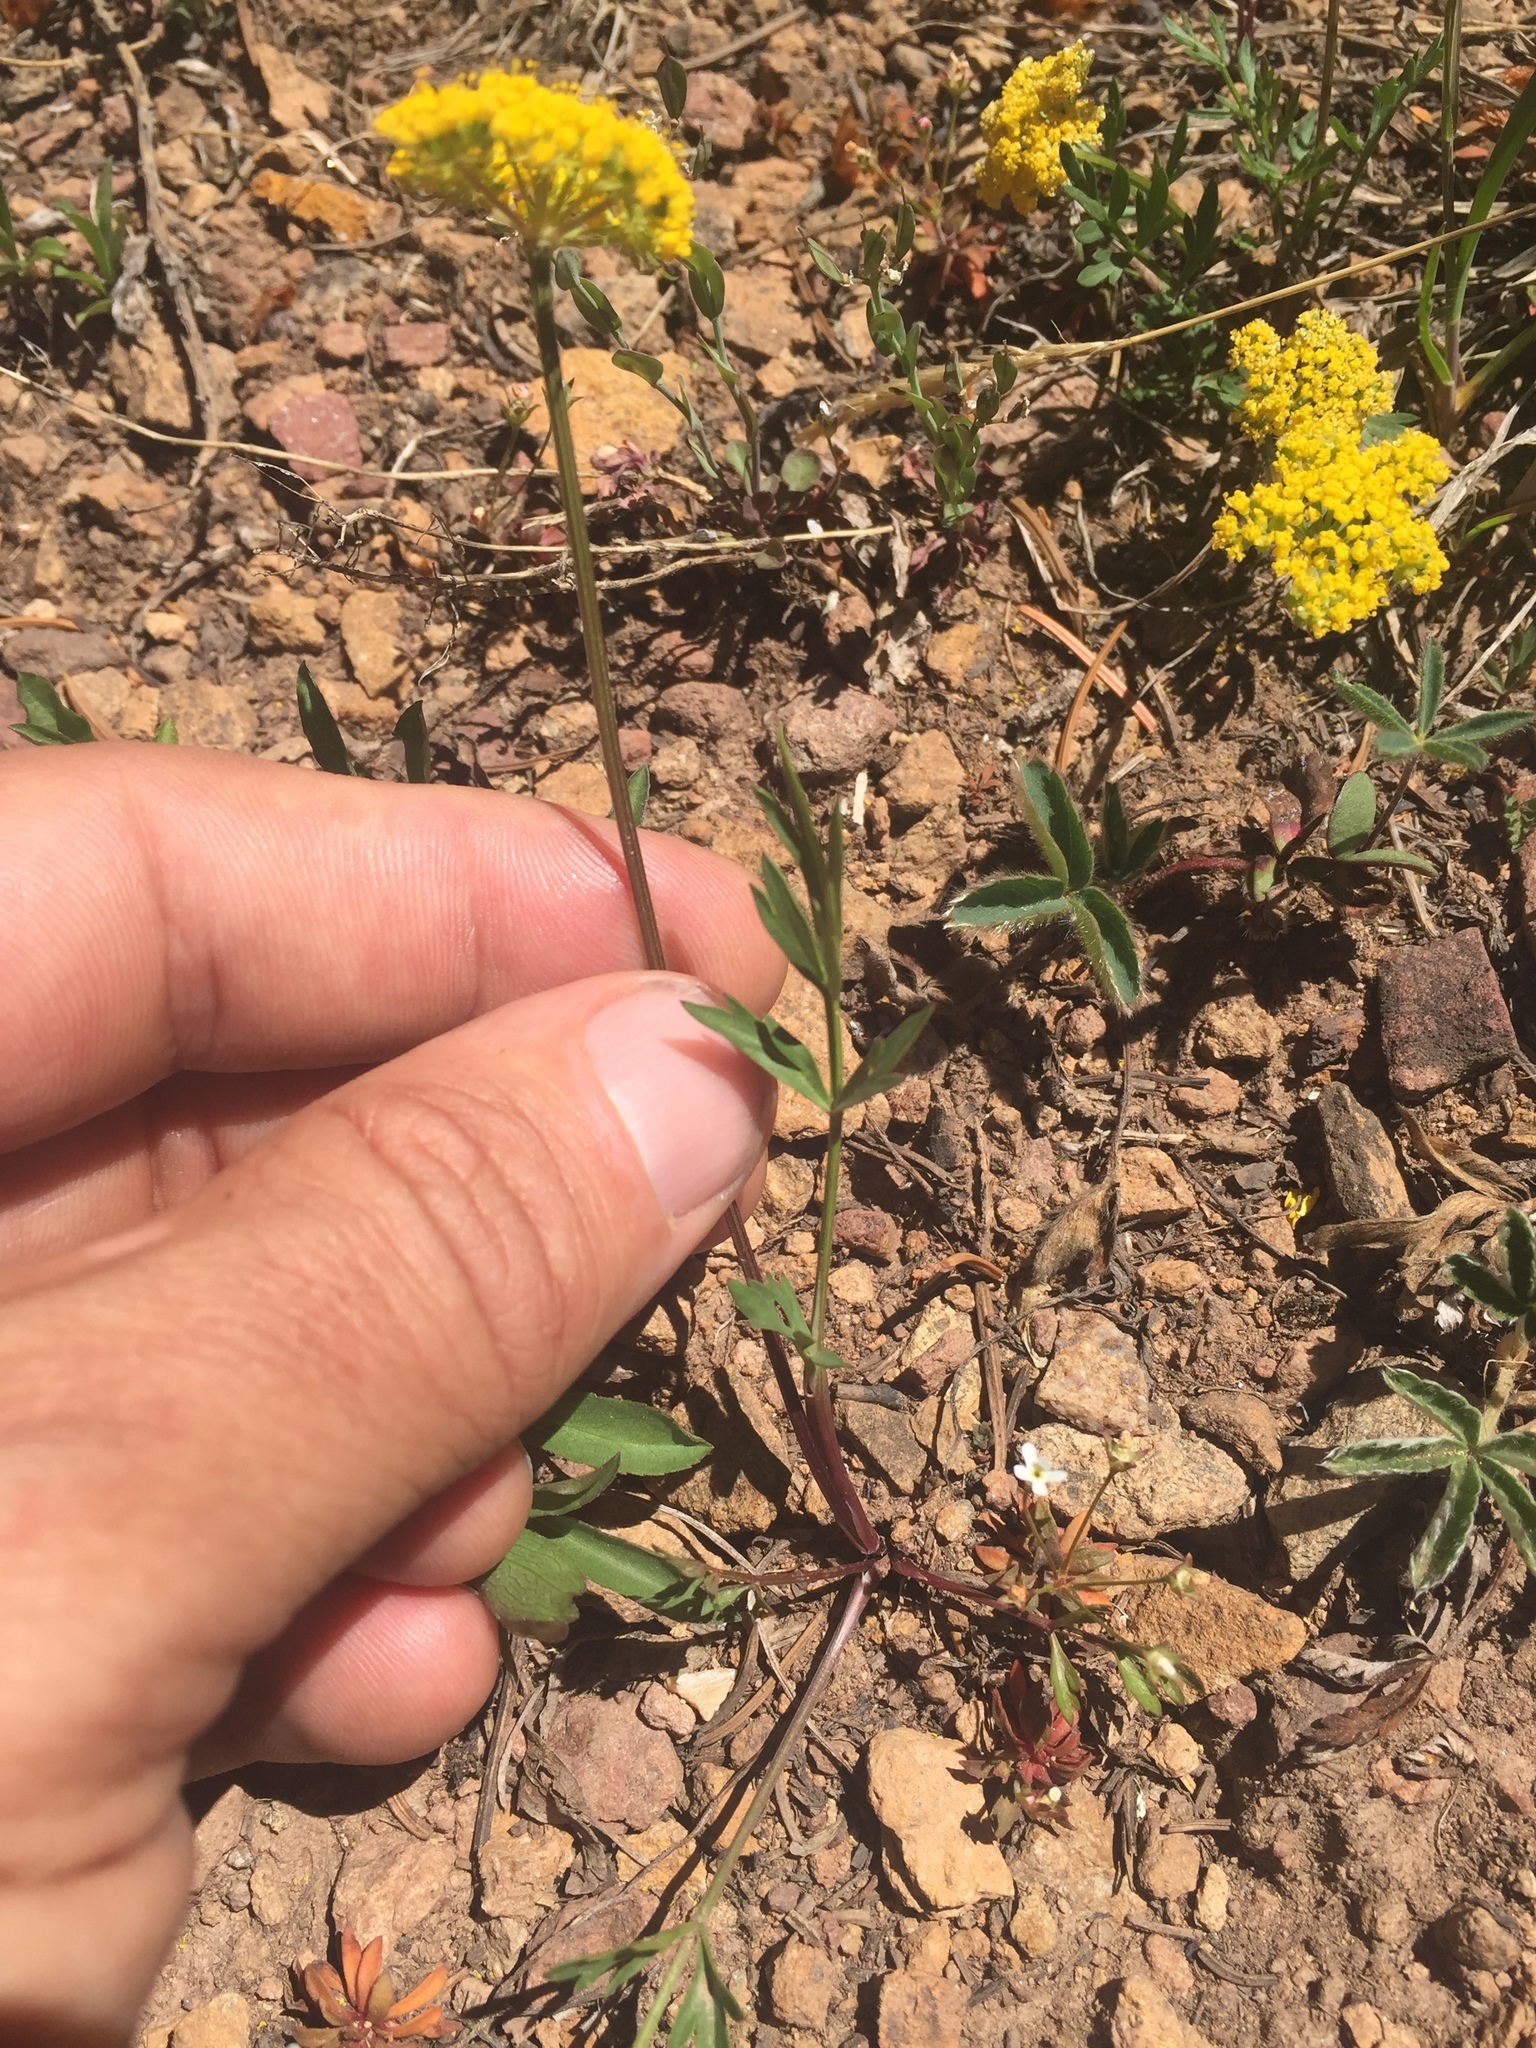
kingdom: Plantae
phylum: Tracheophyta
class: Magnoliopsida
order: Apiales
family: Apiaceae
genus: Cymopterus
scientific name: Cymopterus lemmonii
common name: Lemmon's spring-parsley
